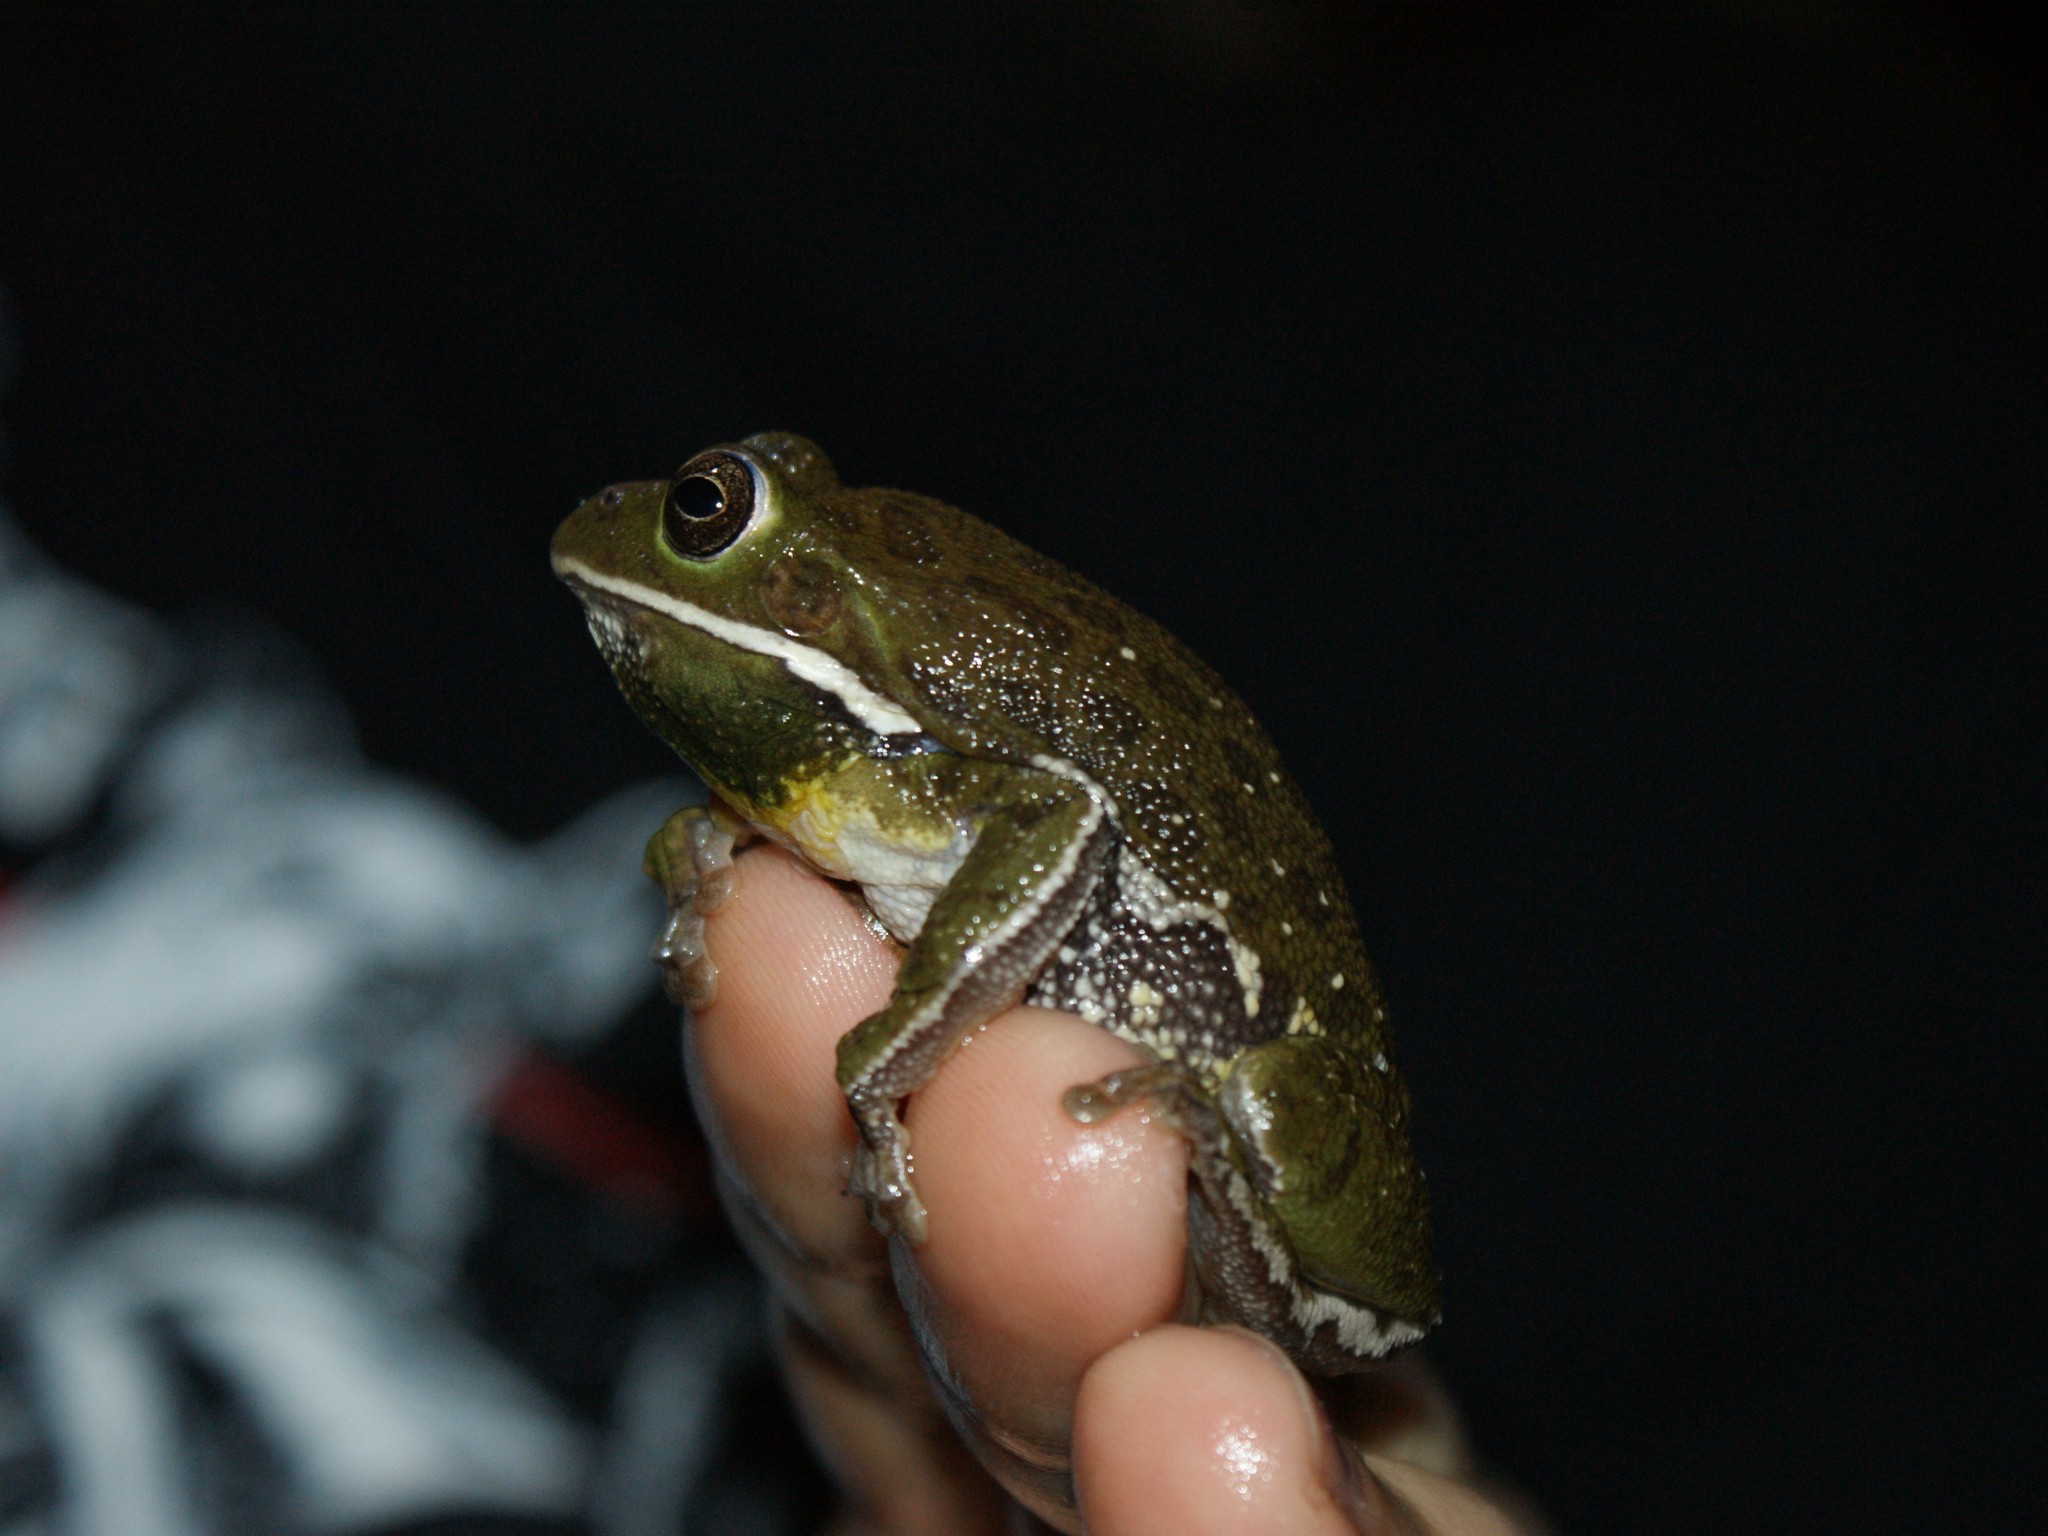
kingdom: Animalia
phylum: Chordata
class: Amphibia
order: Anura
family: Hylidae
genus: Dryophytes
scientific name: Dryophytes gratiosus
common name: Barking treefrog
